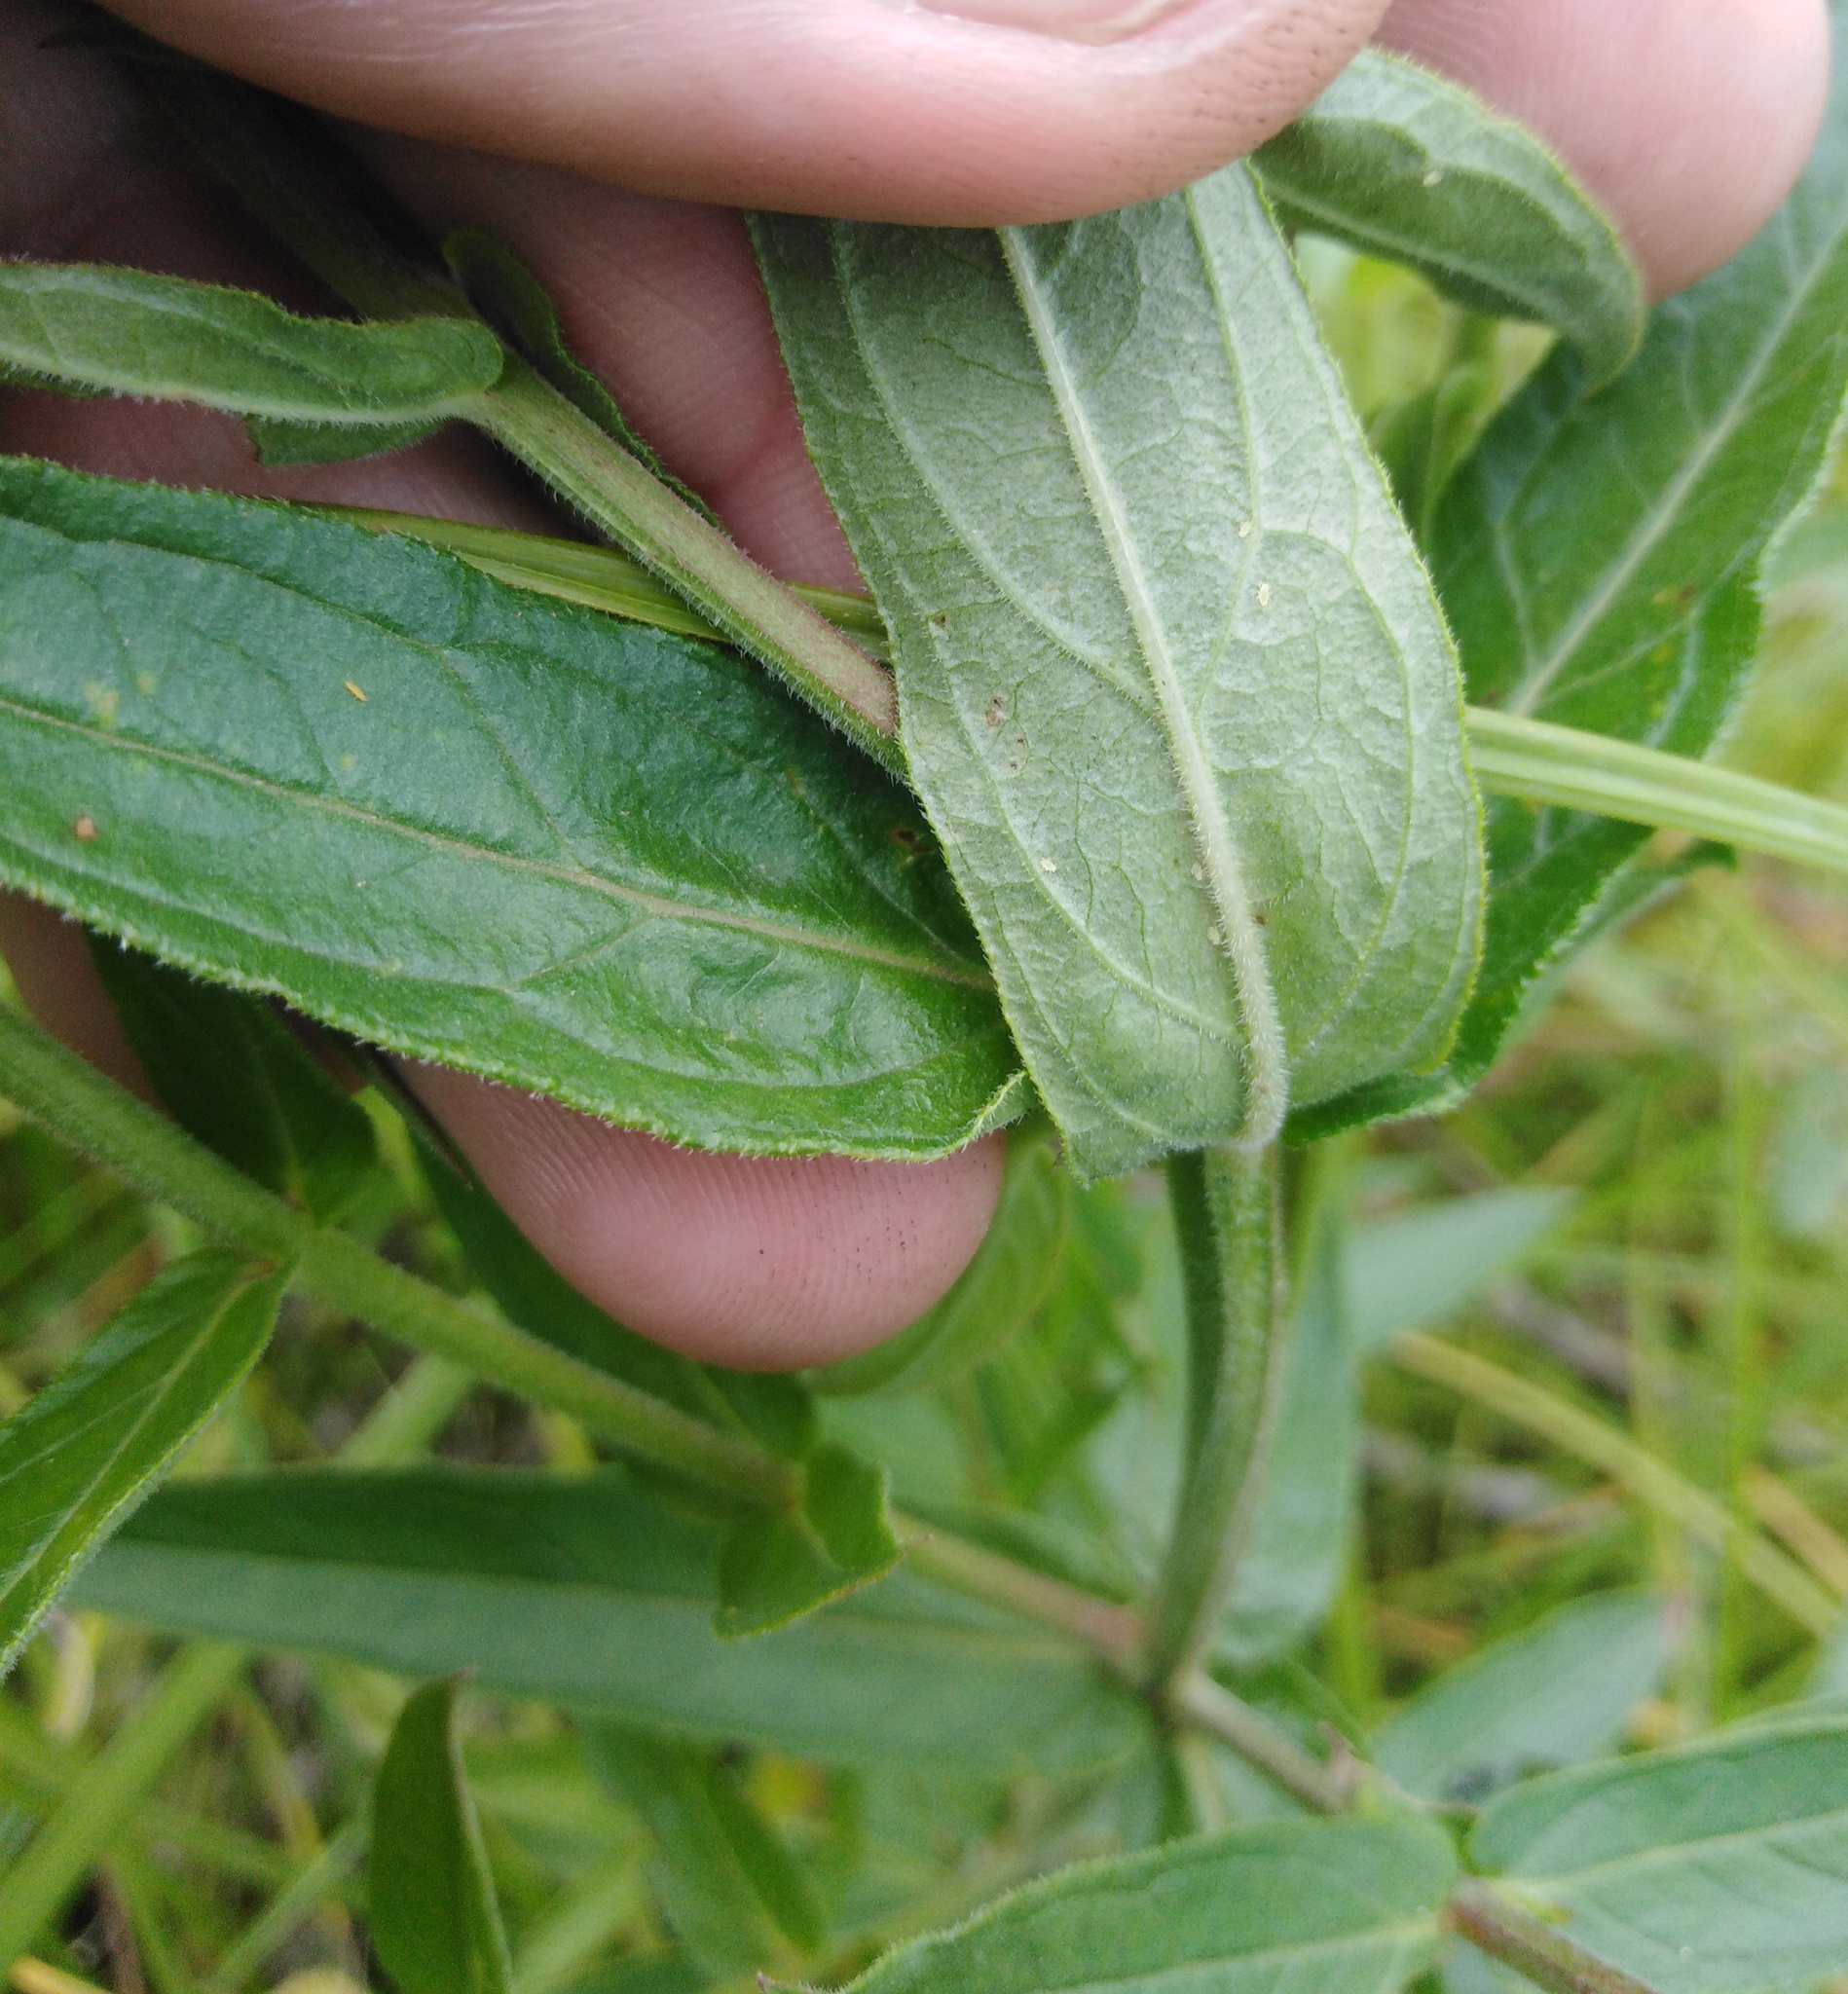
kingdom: Plantae
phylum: Tracheophyta
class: Magnoliopsida
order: Myrtales
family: Lythraceae
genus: Lythrum
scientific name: Lythrum salicaria
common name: Purple loosestrife
